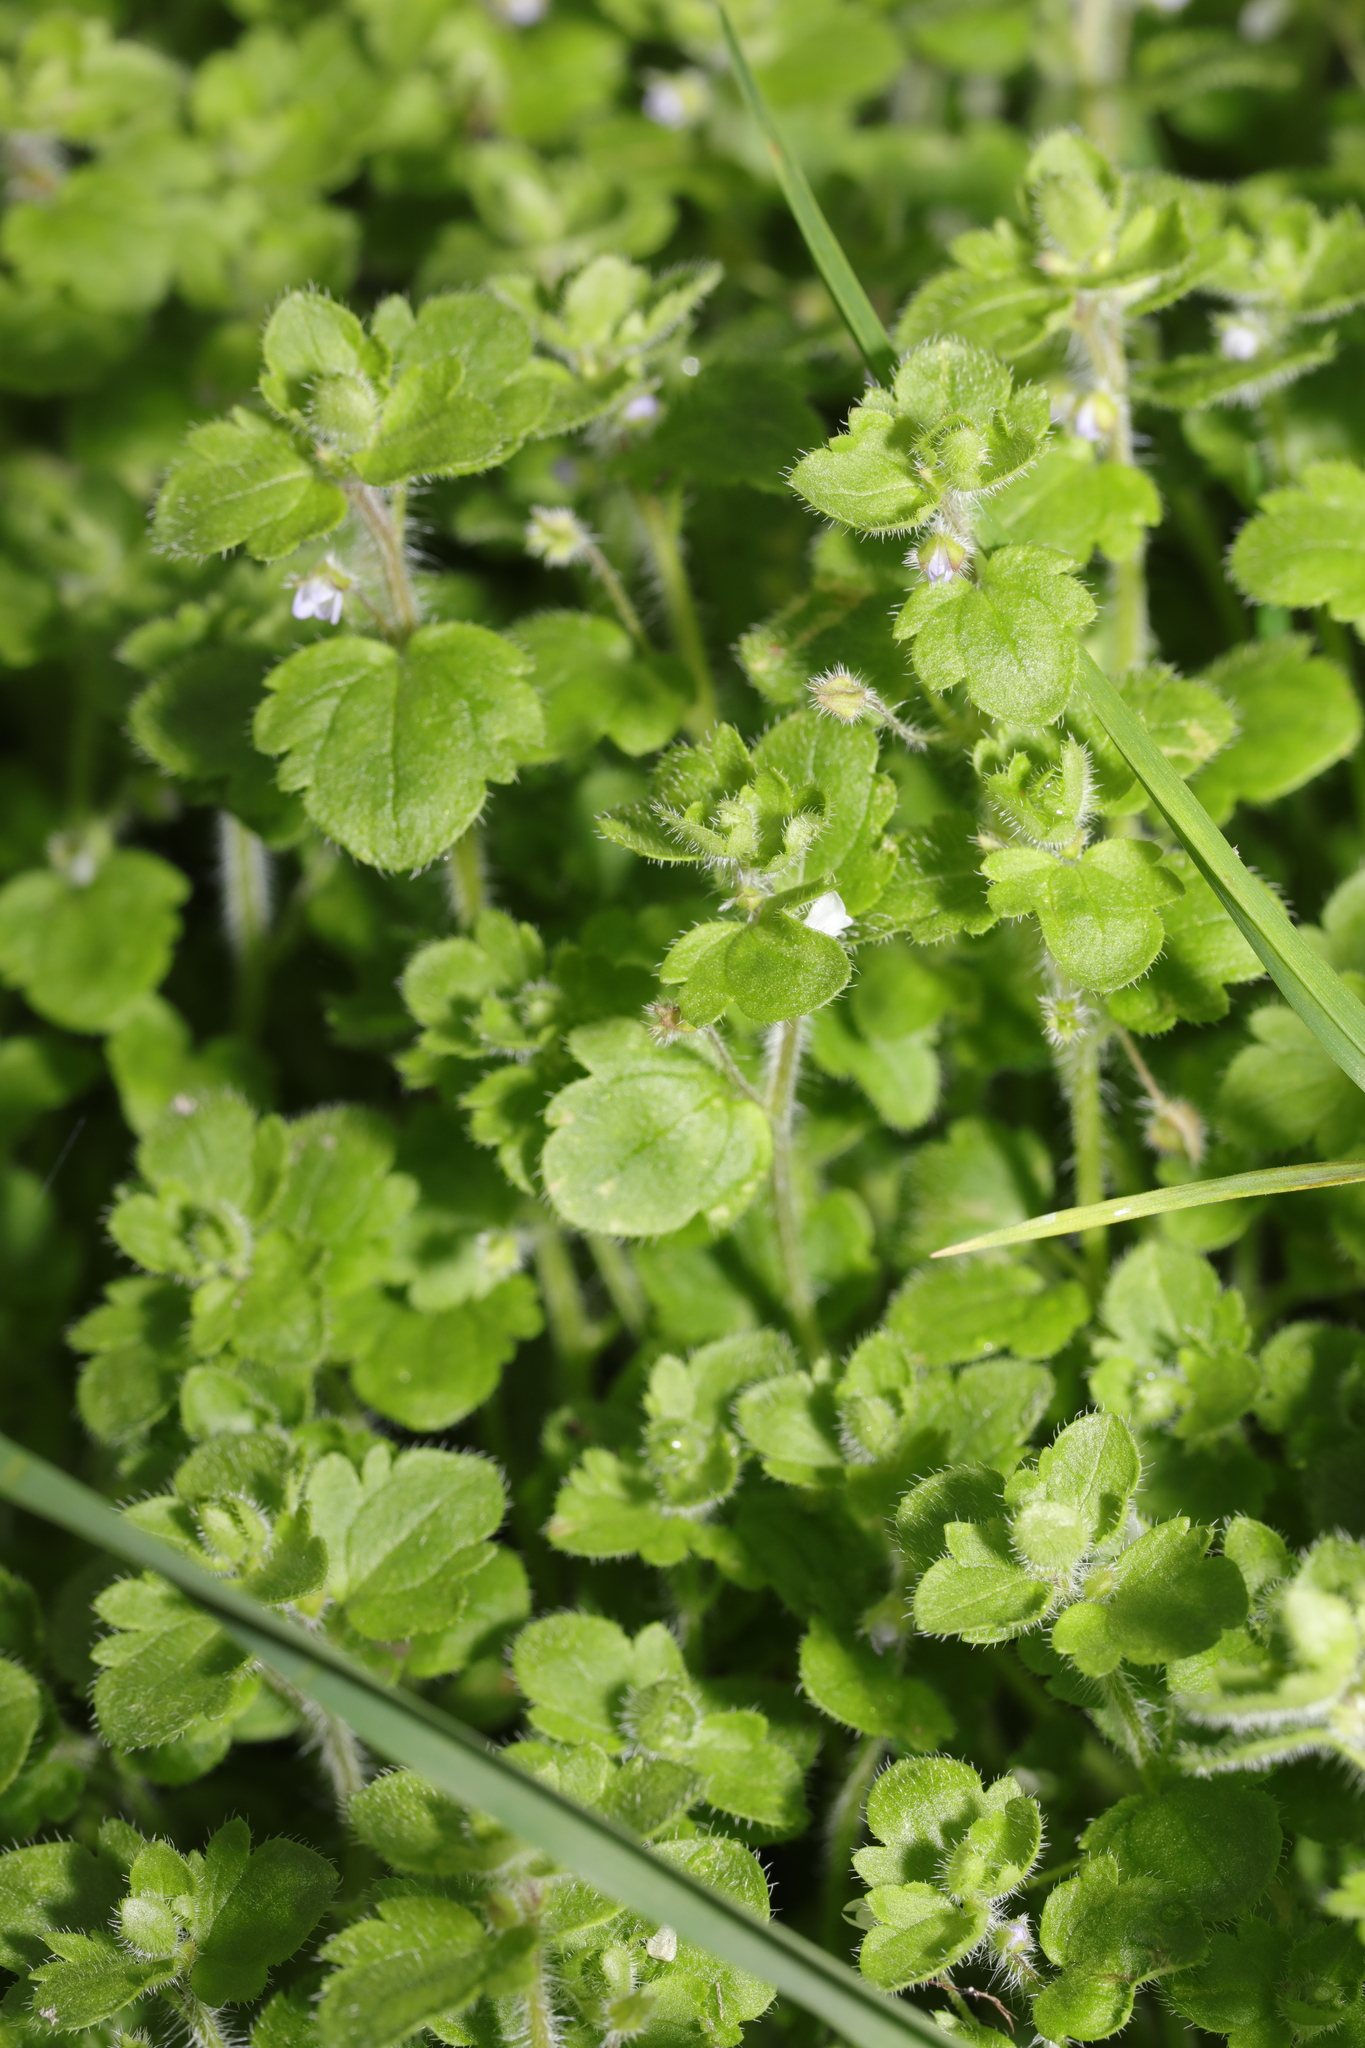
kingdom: Plantae
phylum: Tracheophyta
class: Magnoliopsida
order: Lamiales
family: Plantaginaceae
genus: Veronica
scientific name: Veronica sublobata
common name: False ivy-leaved speedwell
